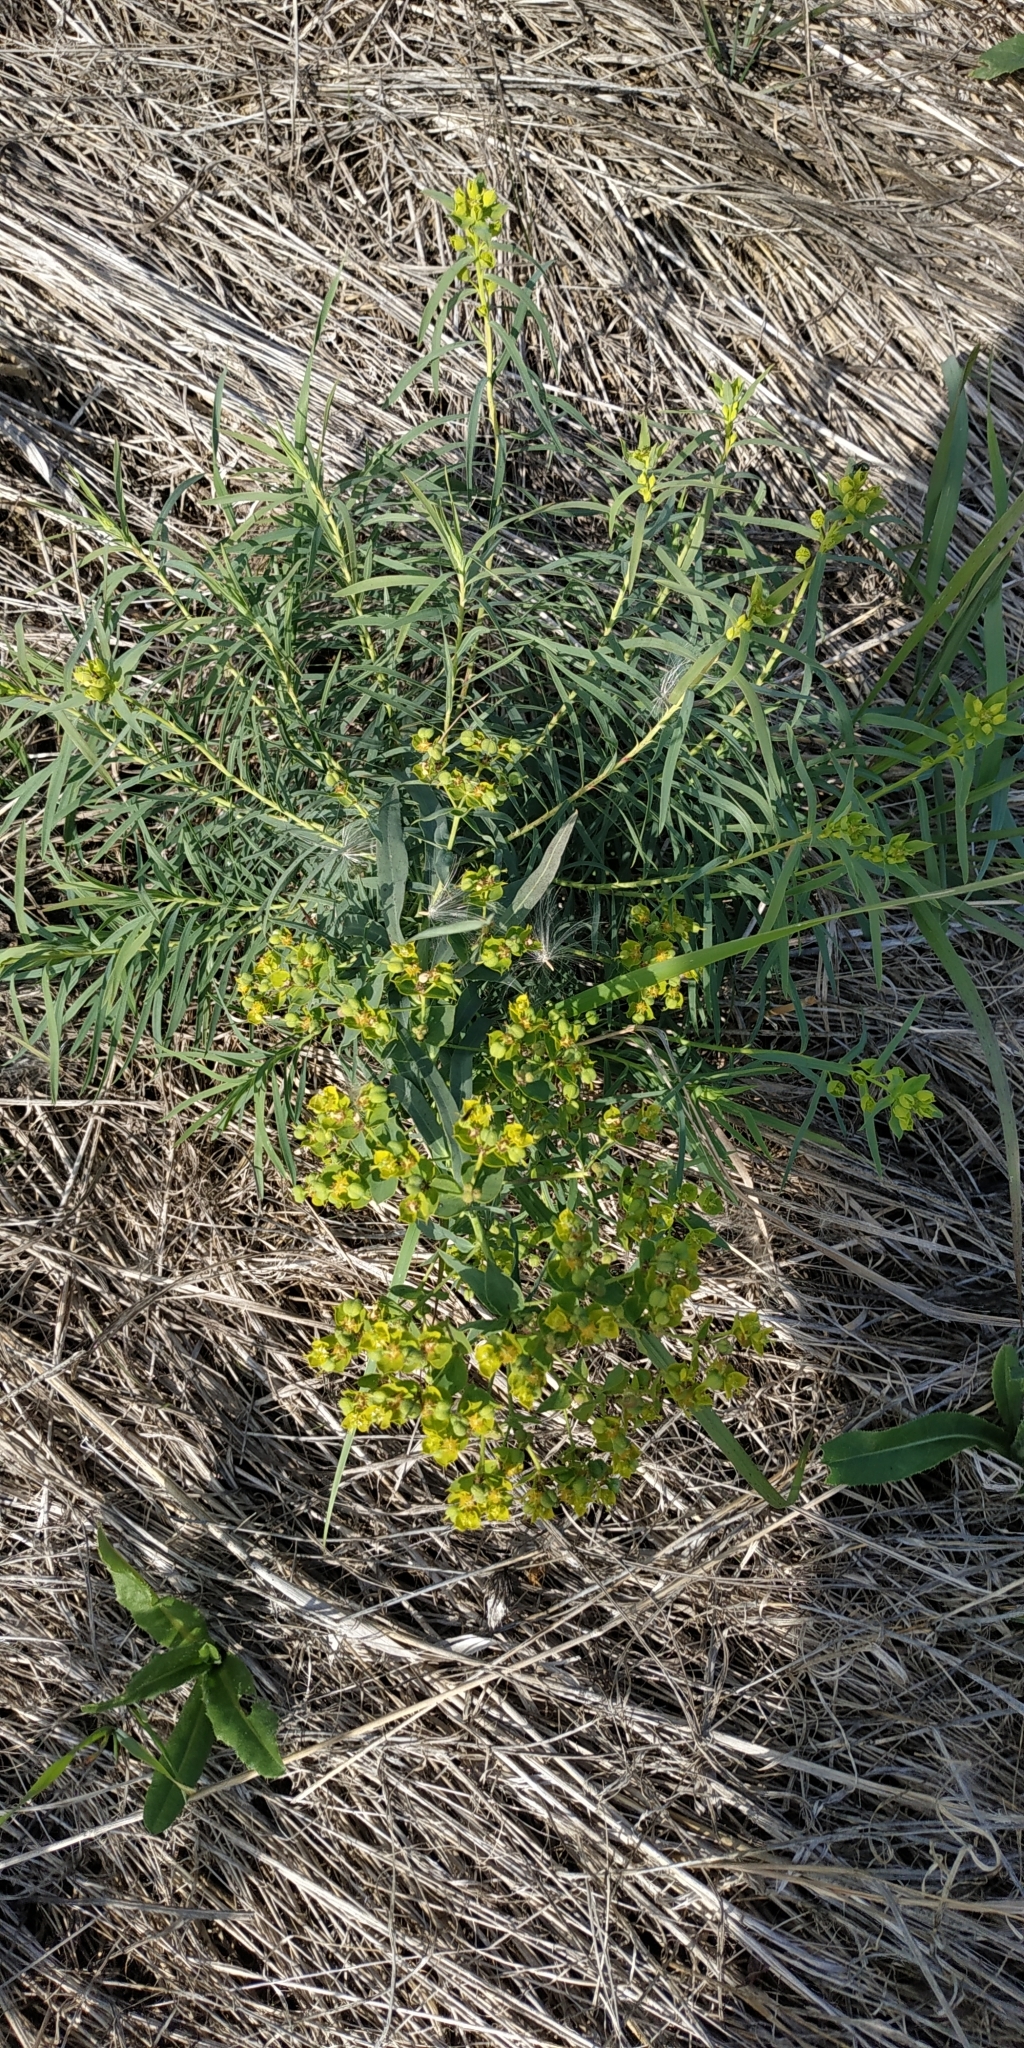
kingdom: Plantae
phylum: Tracheophyta
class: Magnoliopsida
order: Malpighiales
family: Euphorbiaceae
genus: Euphorbia
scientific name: Euphorbia virgata
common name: Leafy spurge
